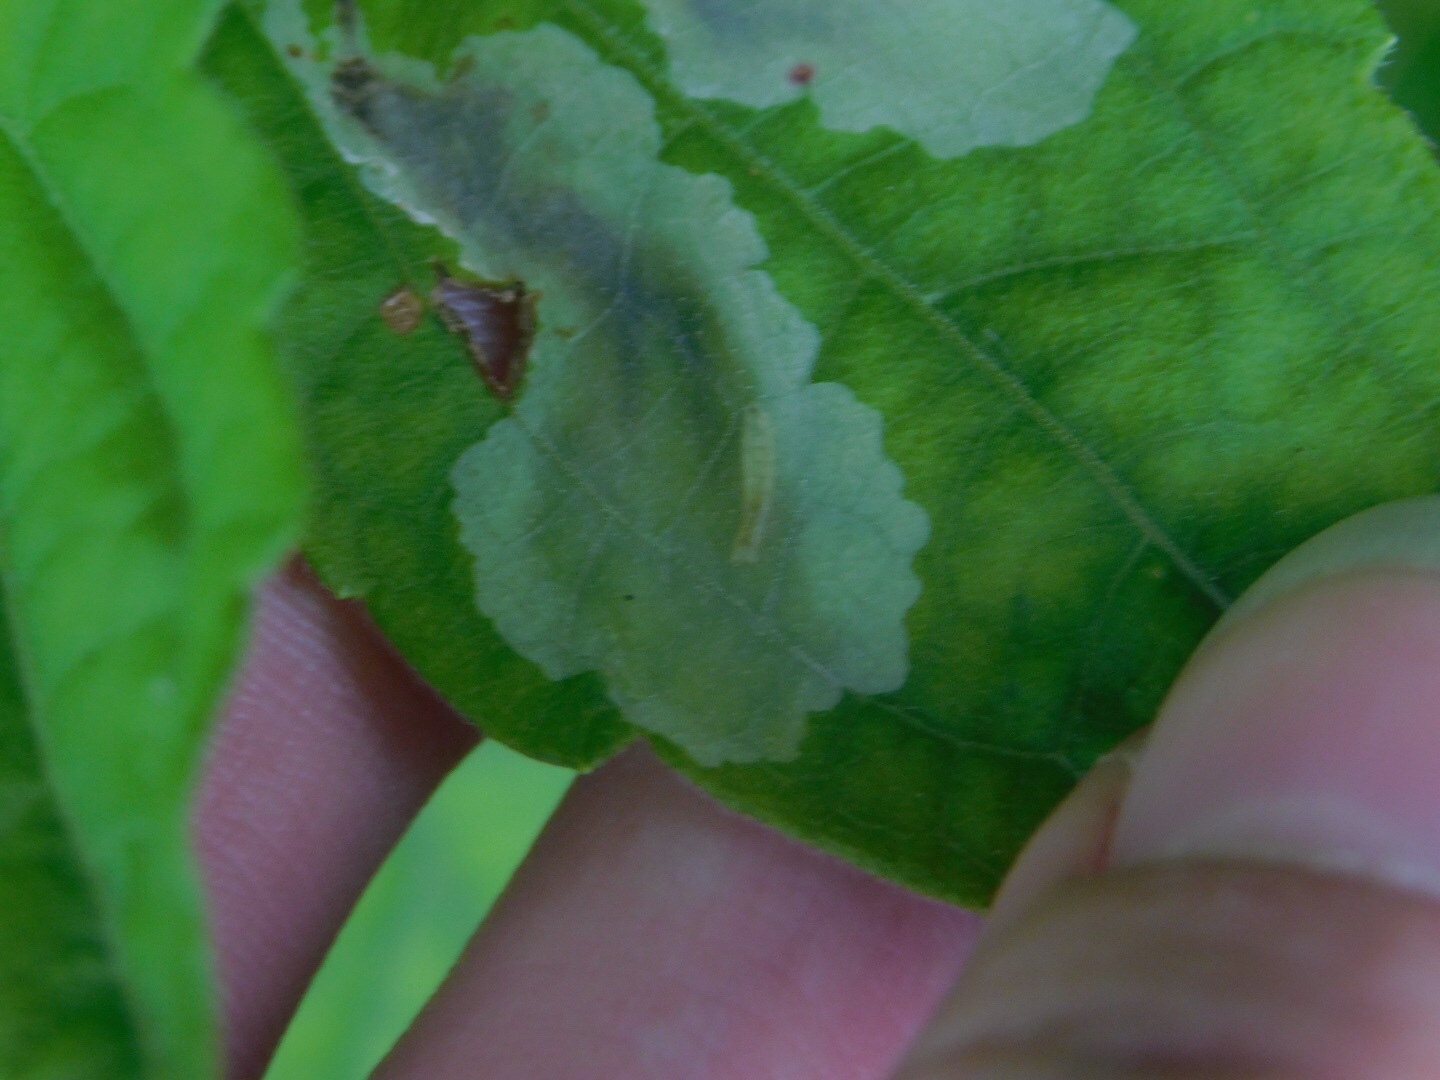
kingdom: Animalia
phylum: Arthropoda
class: Insecta
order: Diptera
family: Agromyzidae
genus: Calycomyza
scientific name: Calycomyza eupatorivora
